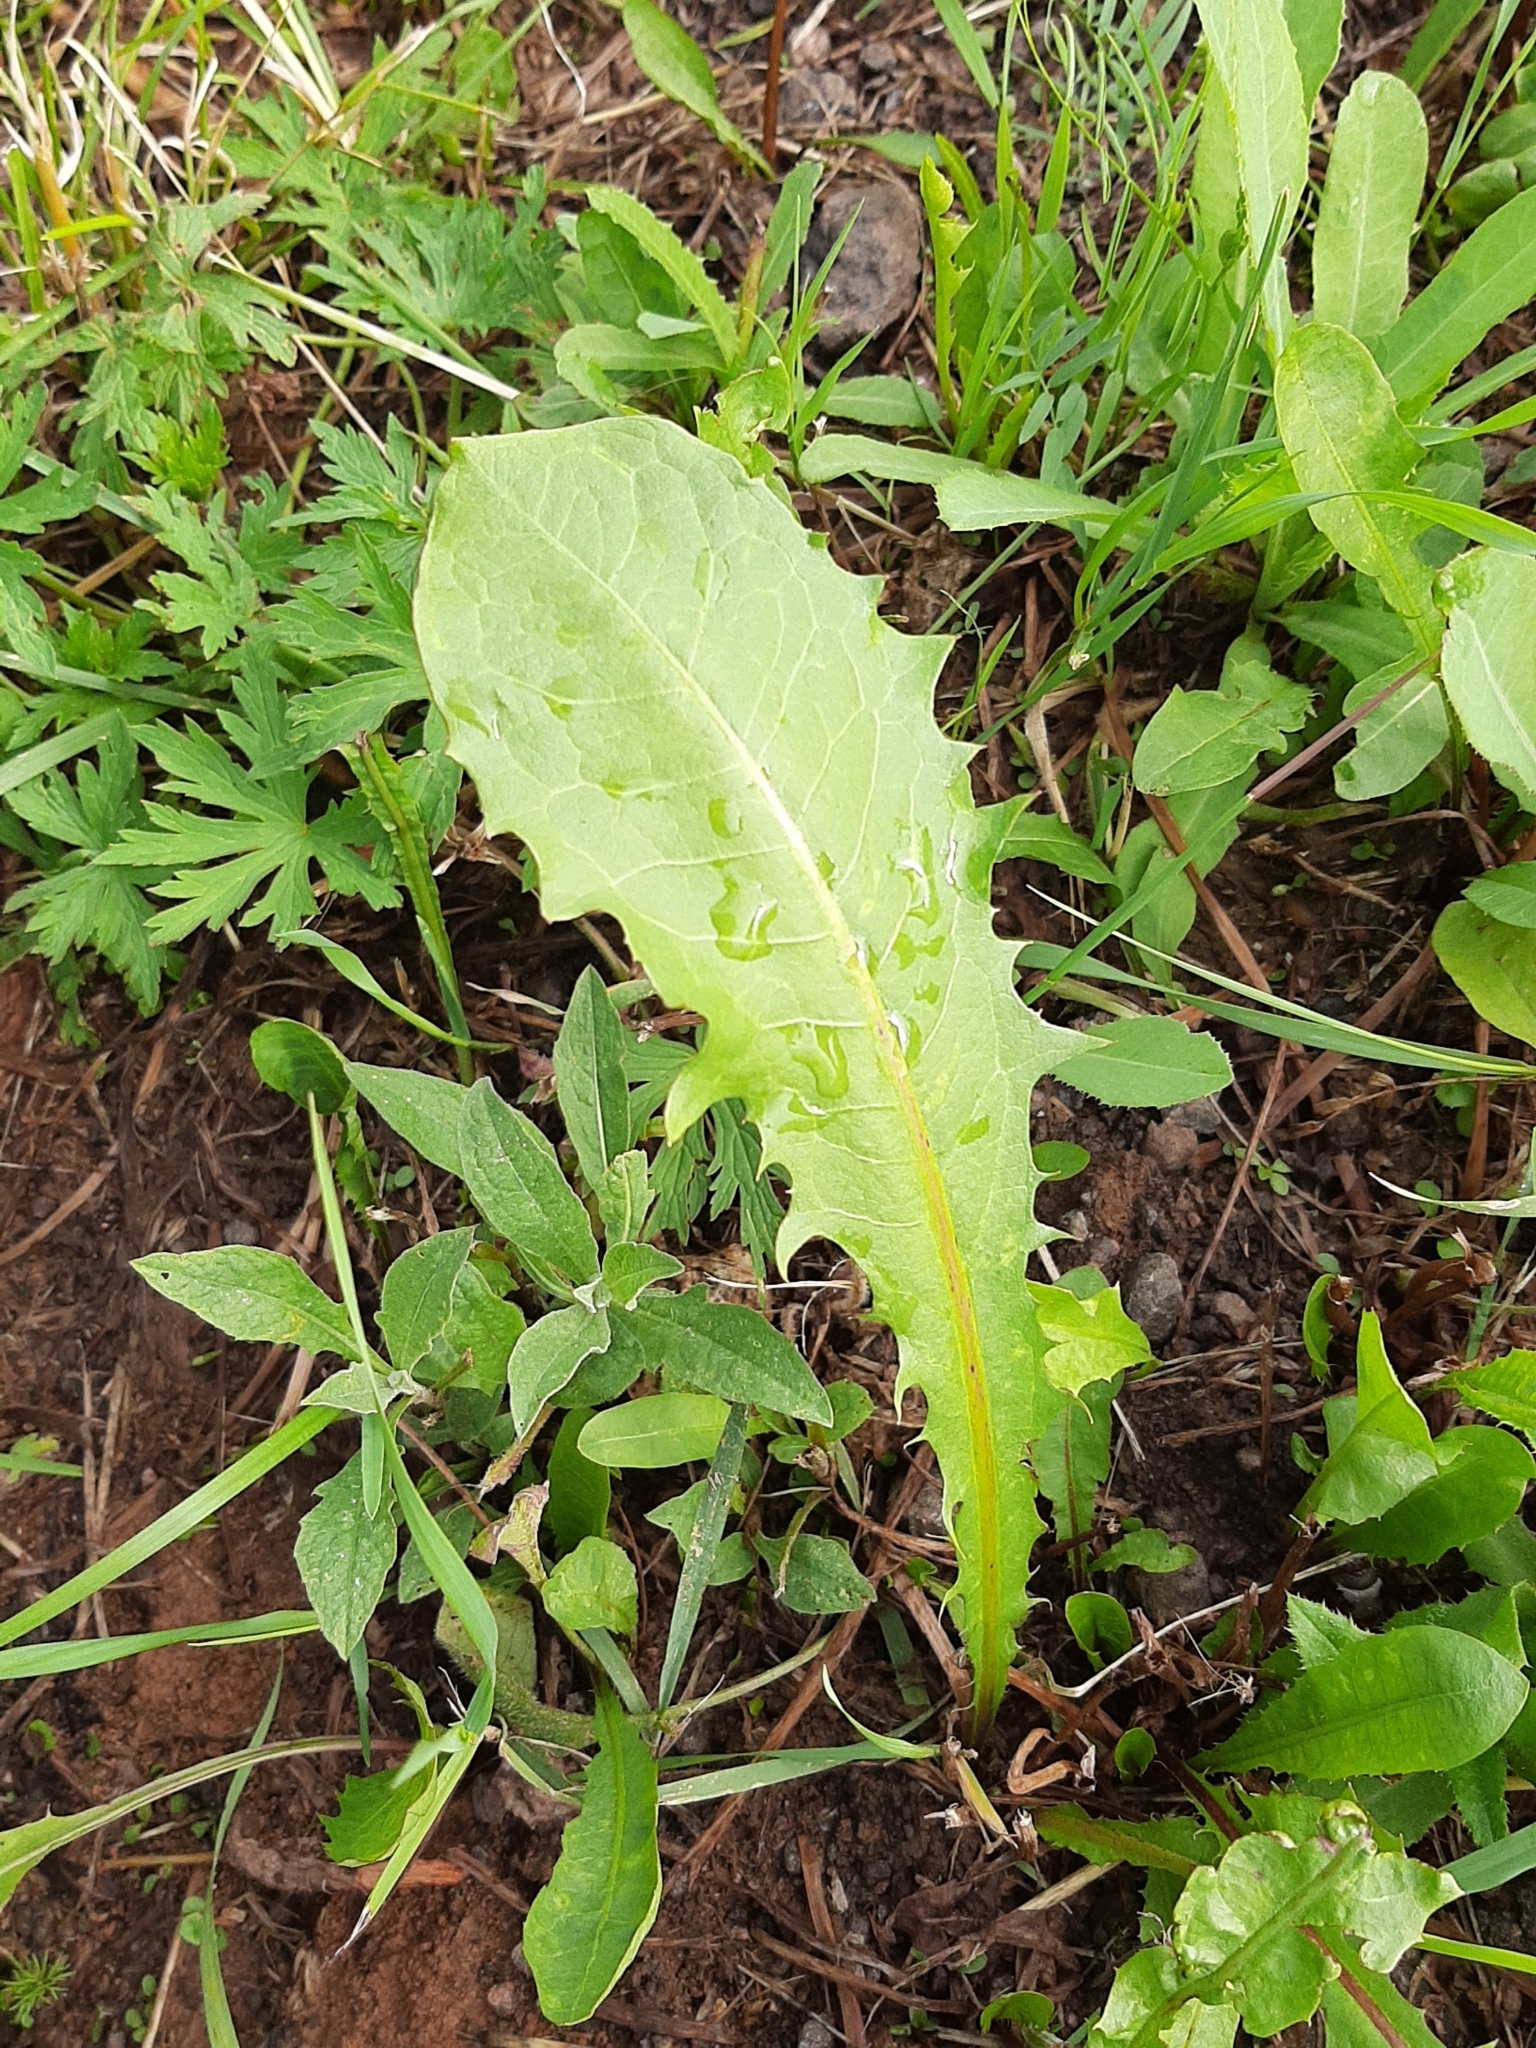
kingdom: Plantae
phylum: Tracheophyta
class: Magnoliopsida
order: Asterales
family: Asteraceae
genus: Taraxacum
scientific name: Taraxacum officinale
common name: Common dandelion
